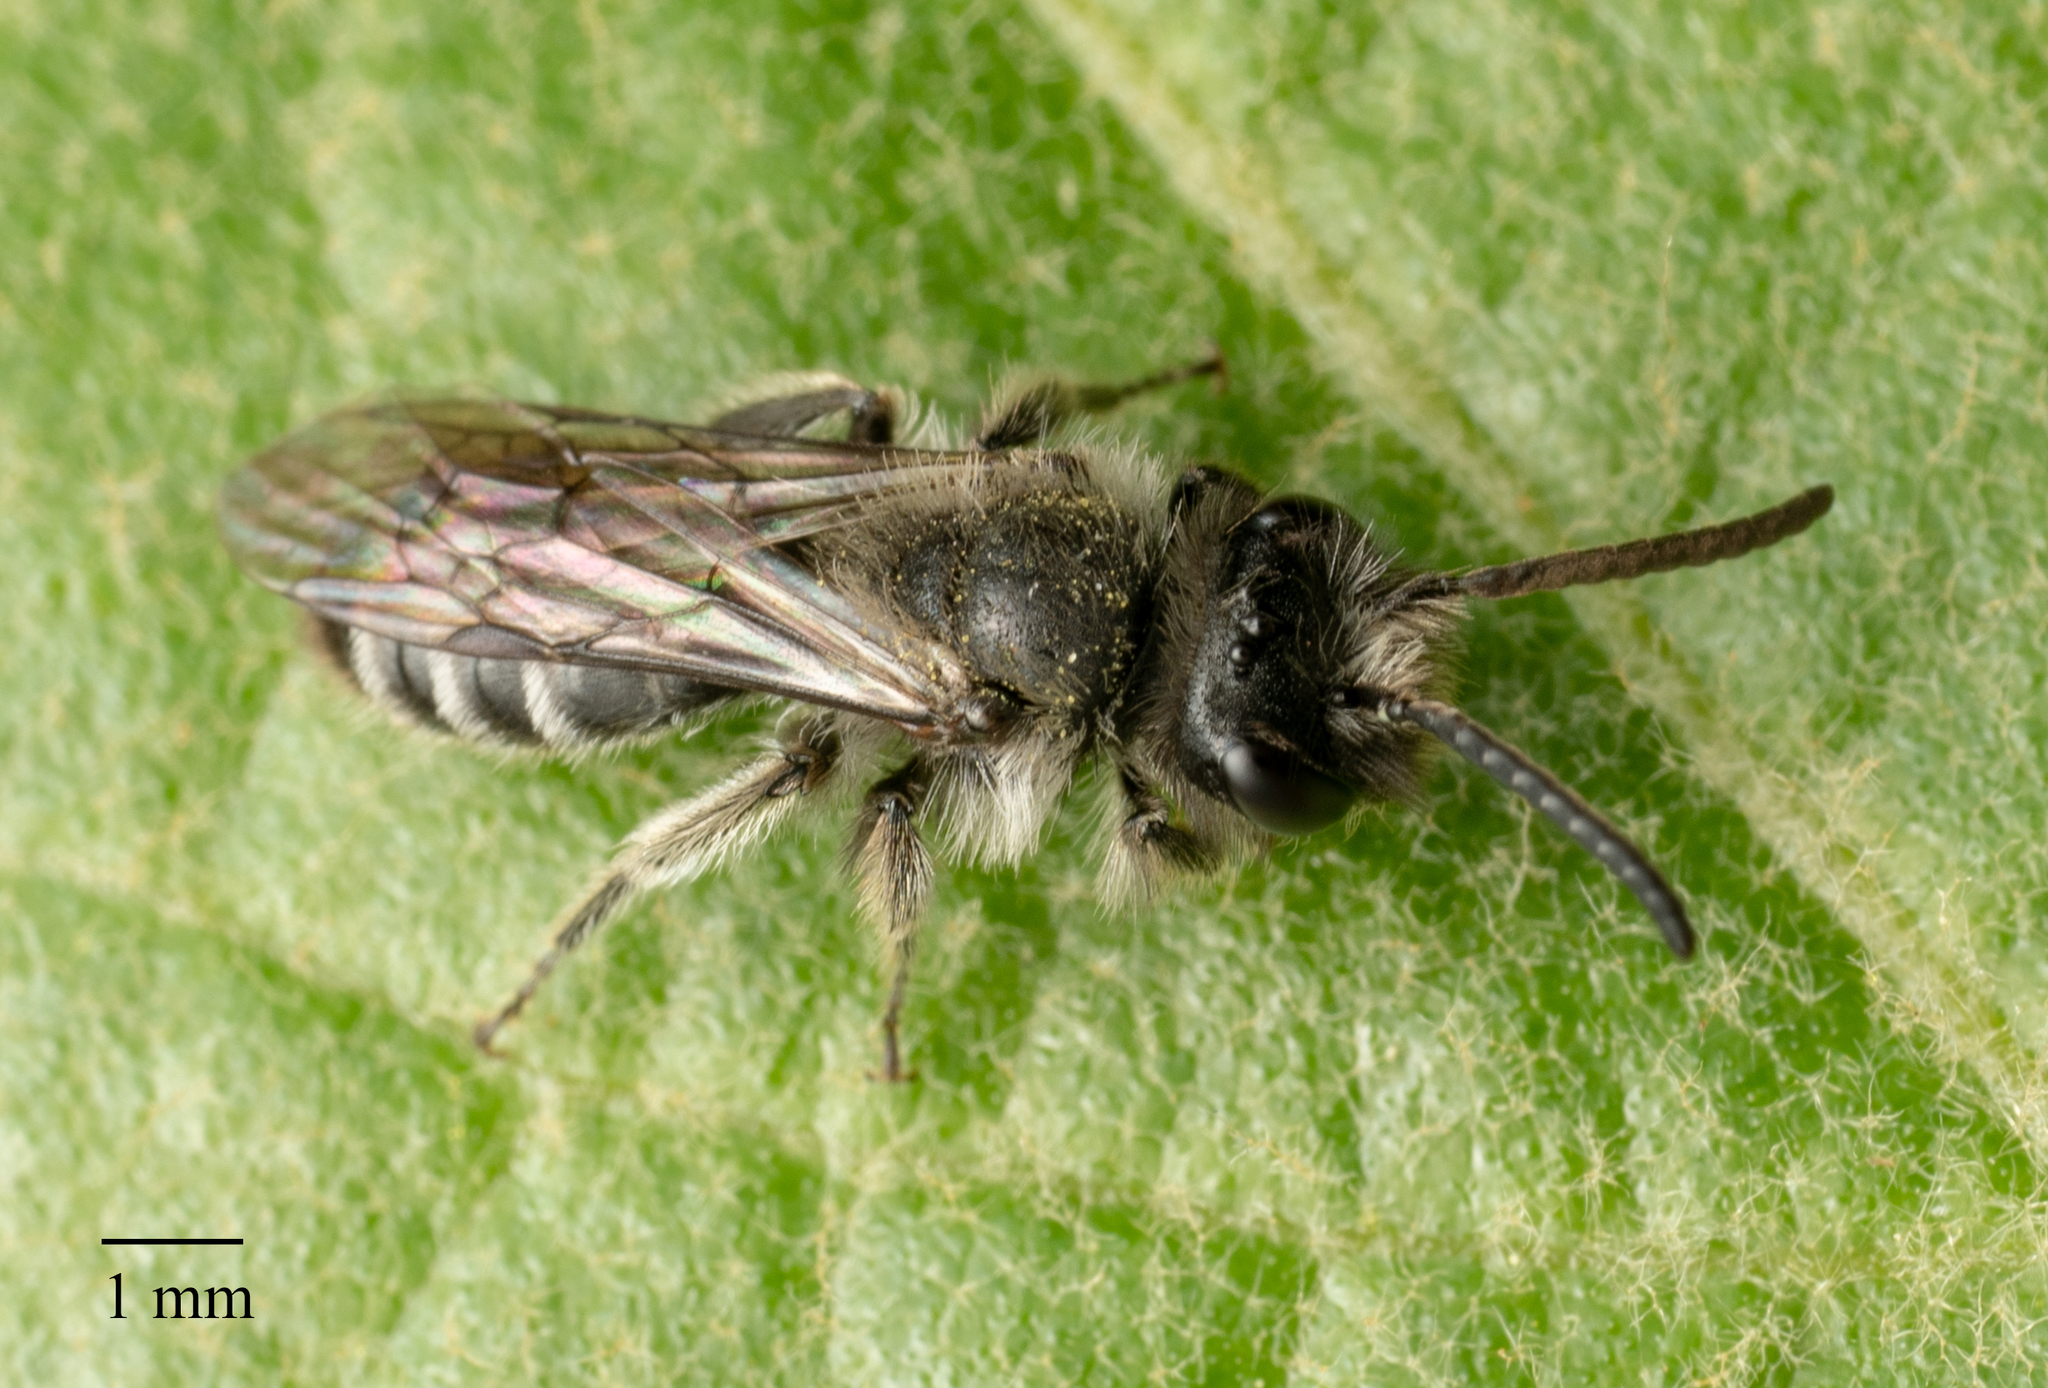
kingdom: Animalia
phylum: Arthropoda
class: Insecta
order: Hymenoptera
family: Andrenidae
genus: Andrena
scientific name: Andrena
